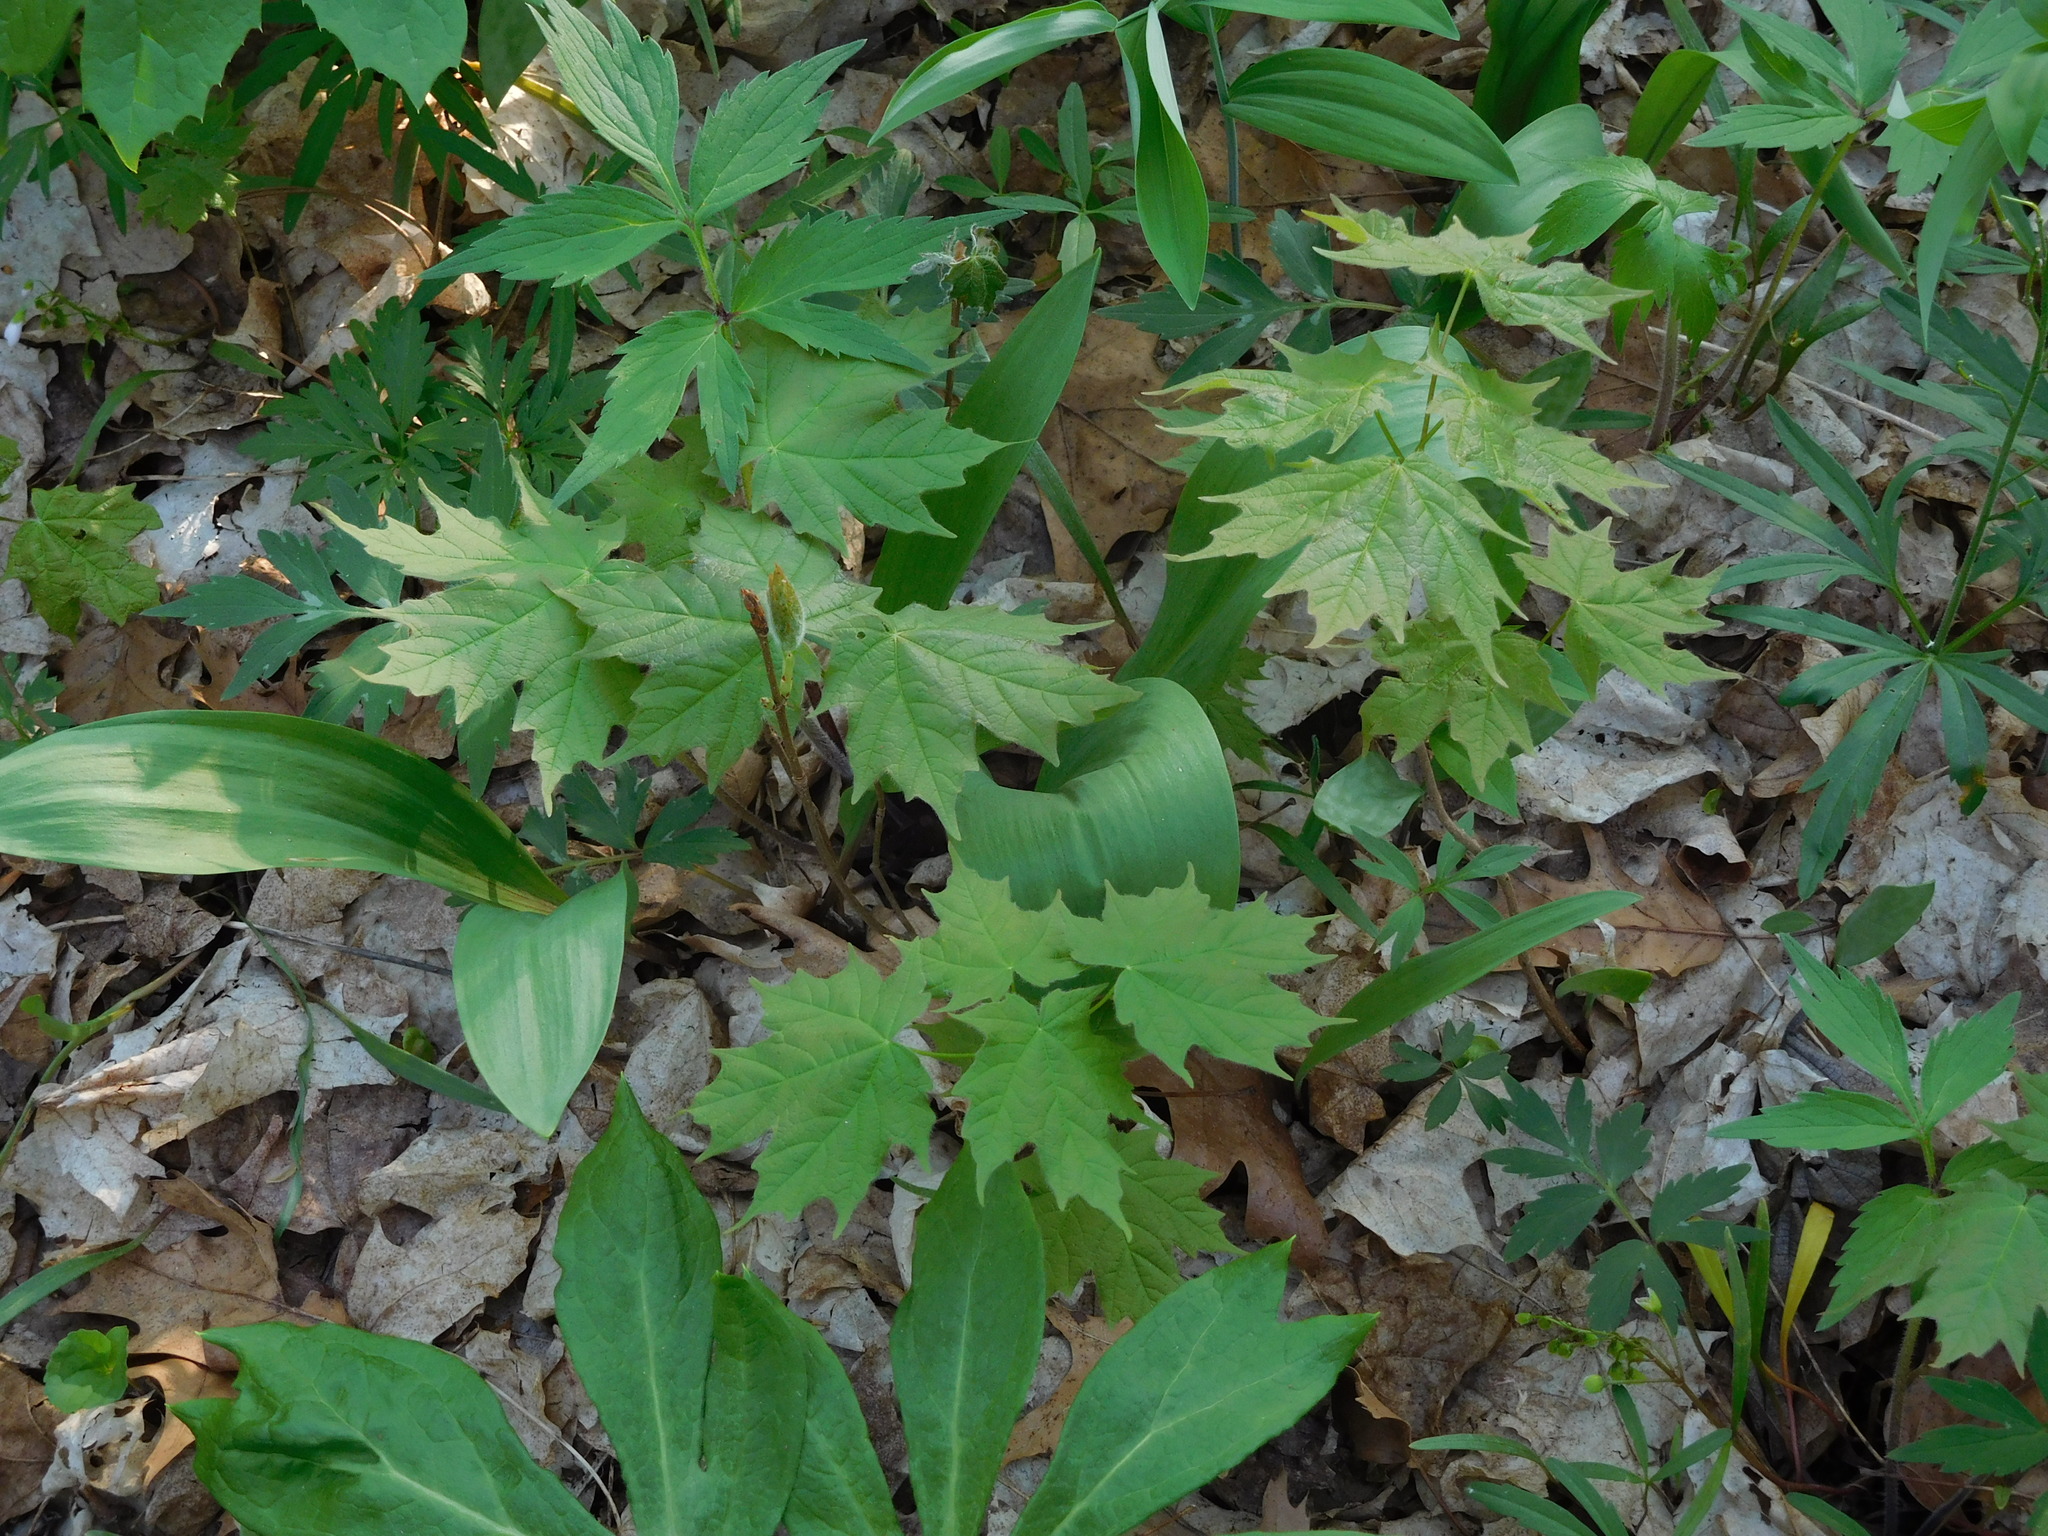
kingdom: Plantae
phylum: Tracheophyta
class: Magnoliopsida
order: Sapindales
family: Sapindaceae
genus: Acer
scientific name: Acer saccharum
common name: Sugar maple
